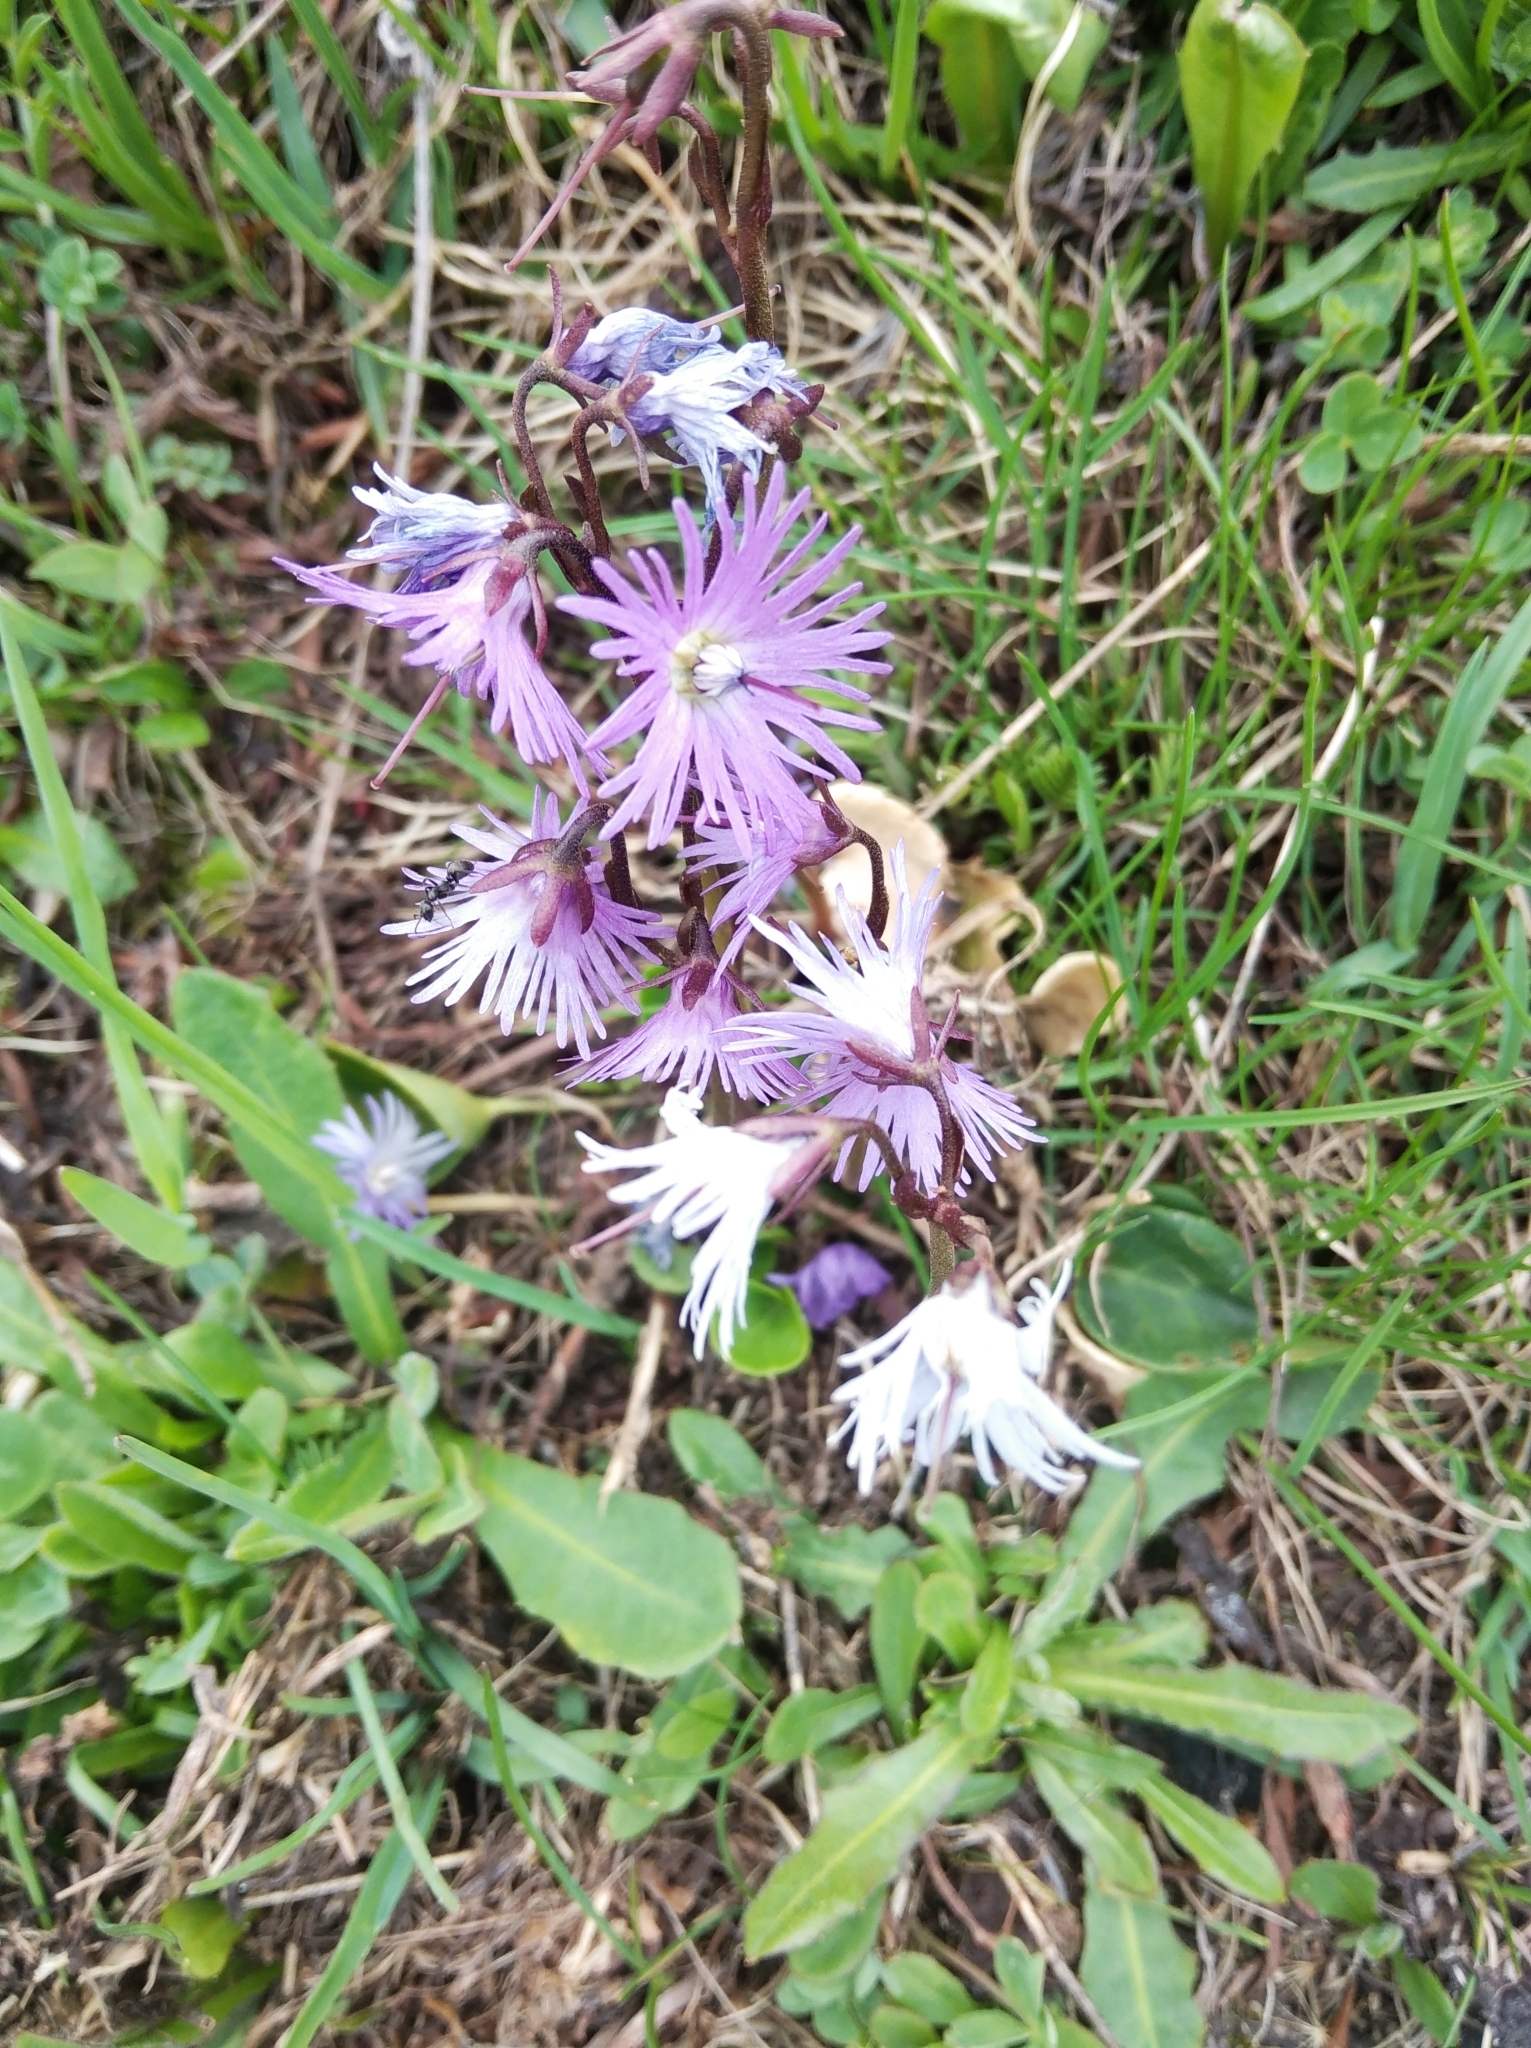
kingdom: Plantae
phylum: Tracheophyta
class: Magnoliopsida
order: Ericales
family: Primulaceae
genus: Soldanella
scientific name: Soldanella alpina
